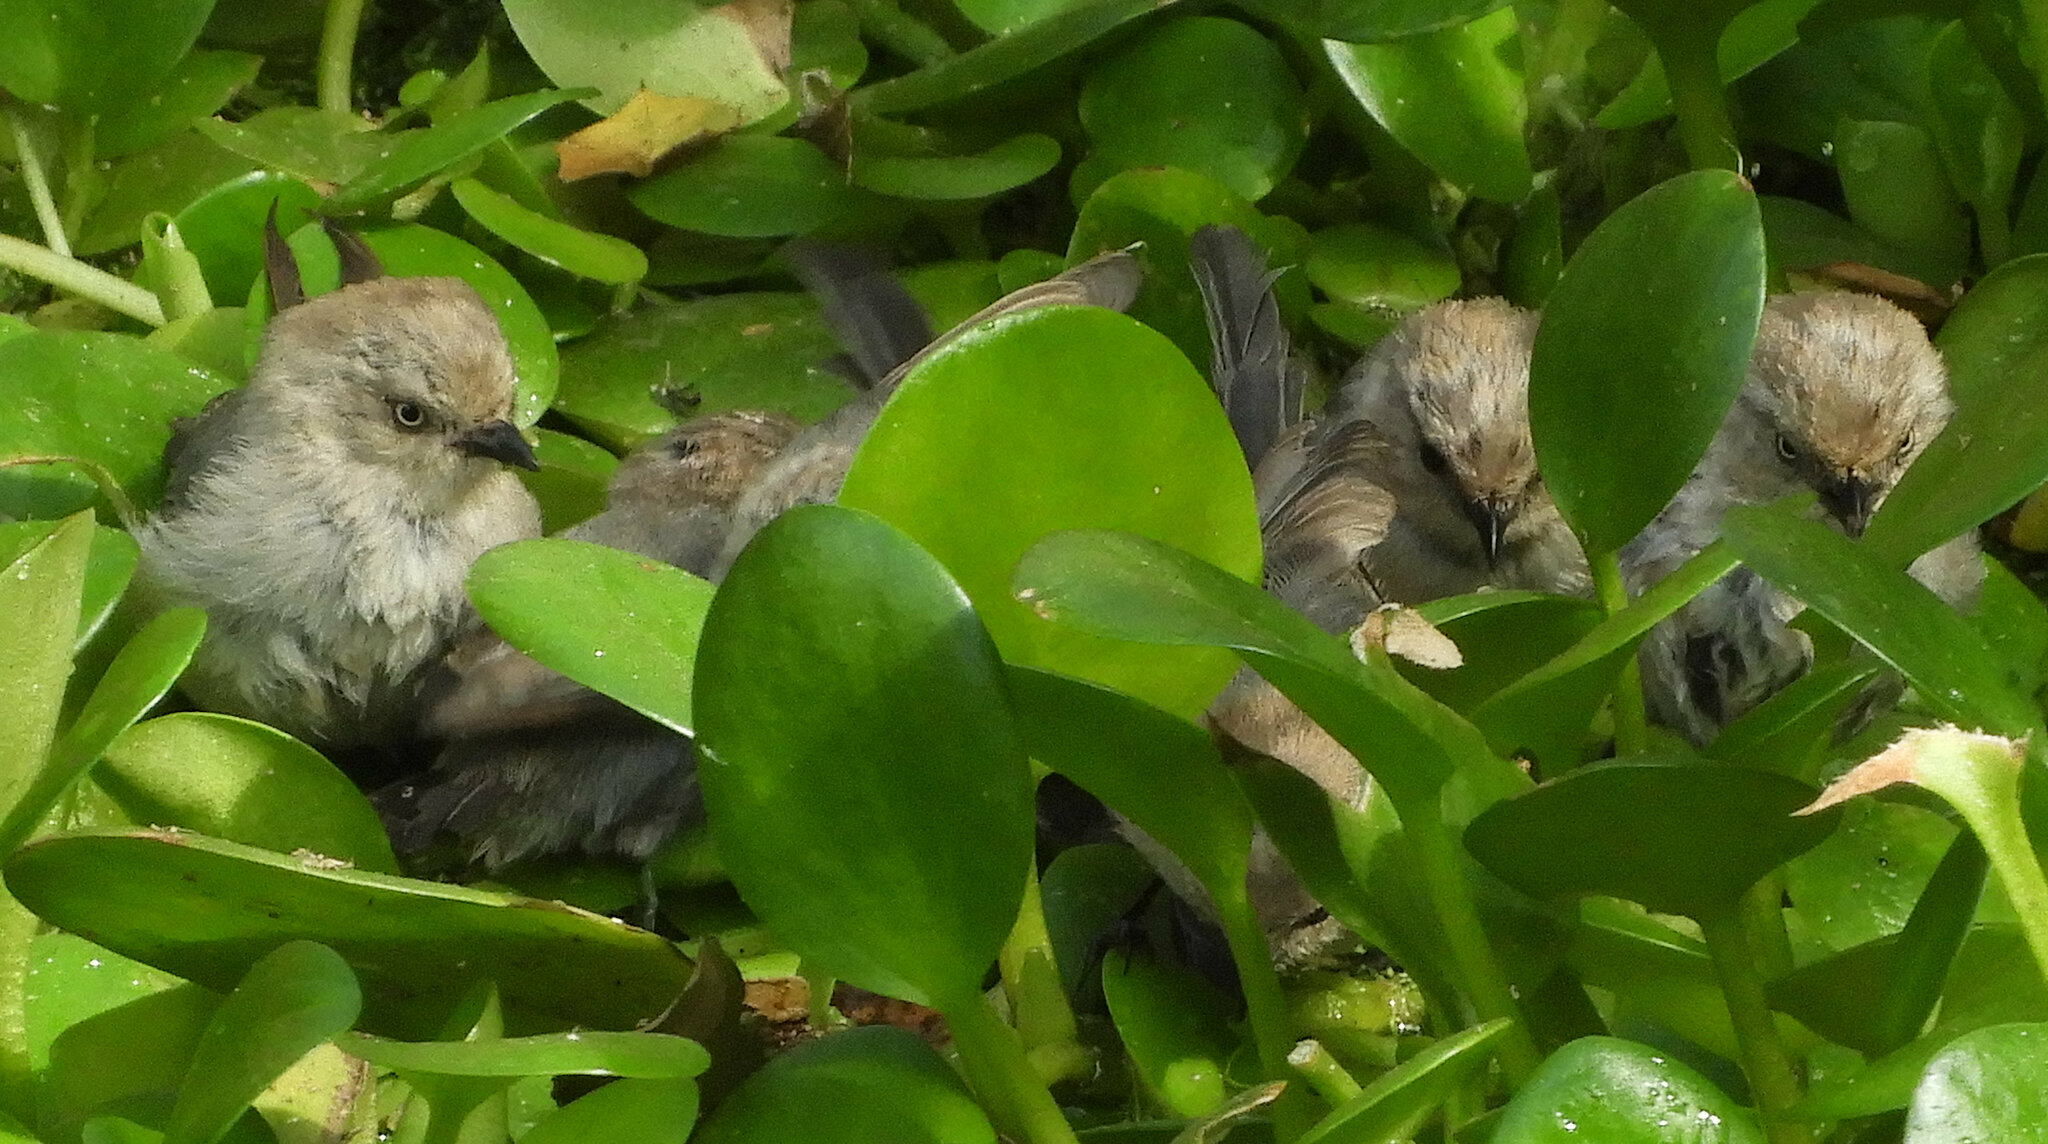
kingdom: Animalia
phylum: Chordata
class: Aves
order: Passeriformes
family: Aegithalidae
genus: Psaltriparus
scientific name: Psaltriparus minimus
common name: American bushtit
